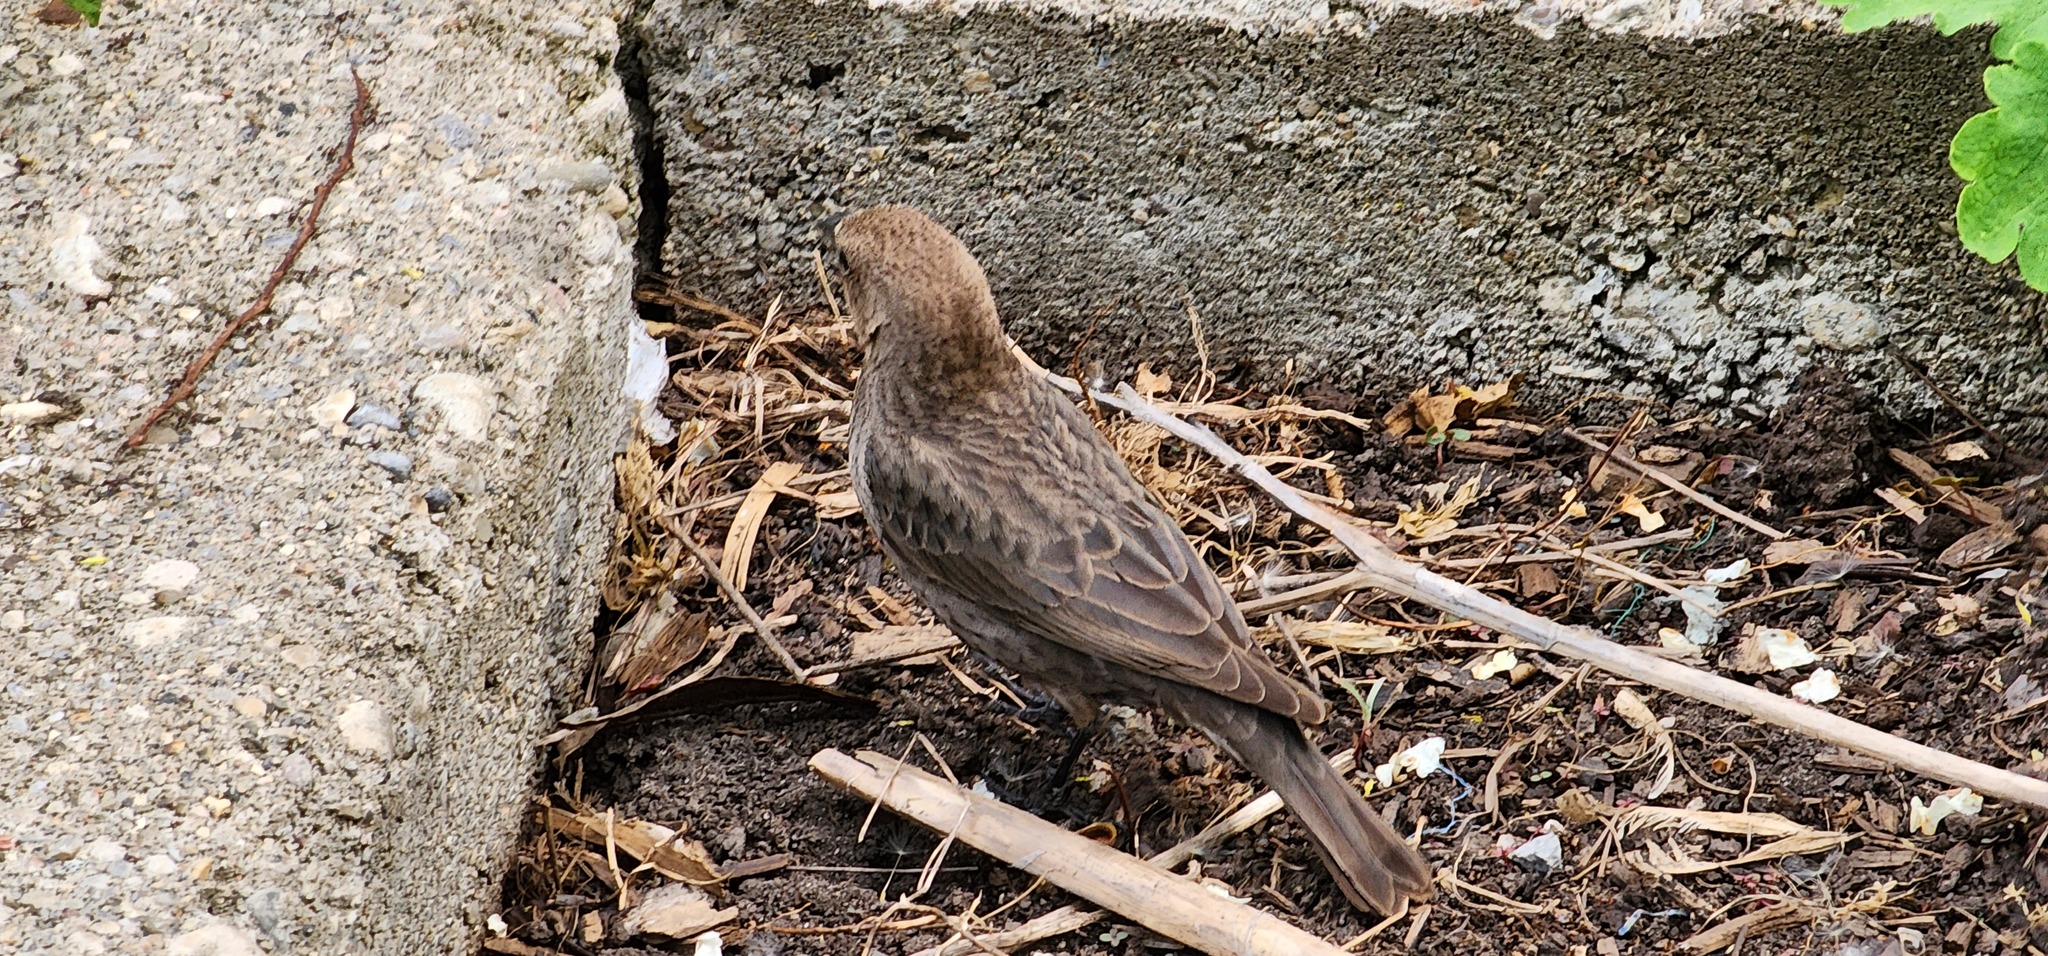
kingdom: Animalia
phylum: Chordata
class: Aves
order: Passeriformes
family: Icteridae
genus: Molothrus
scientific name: Molothrus ater
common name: Brown-headed cowbird
